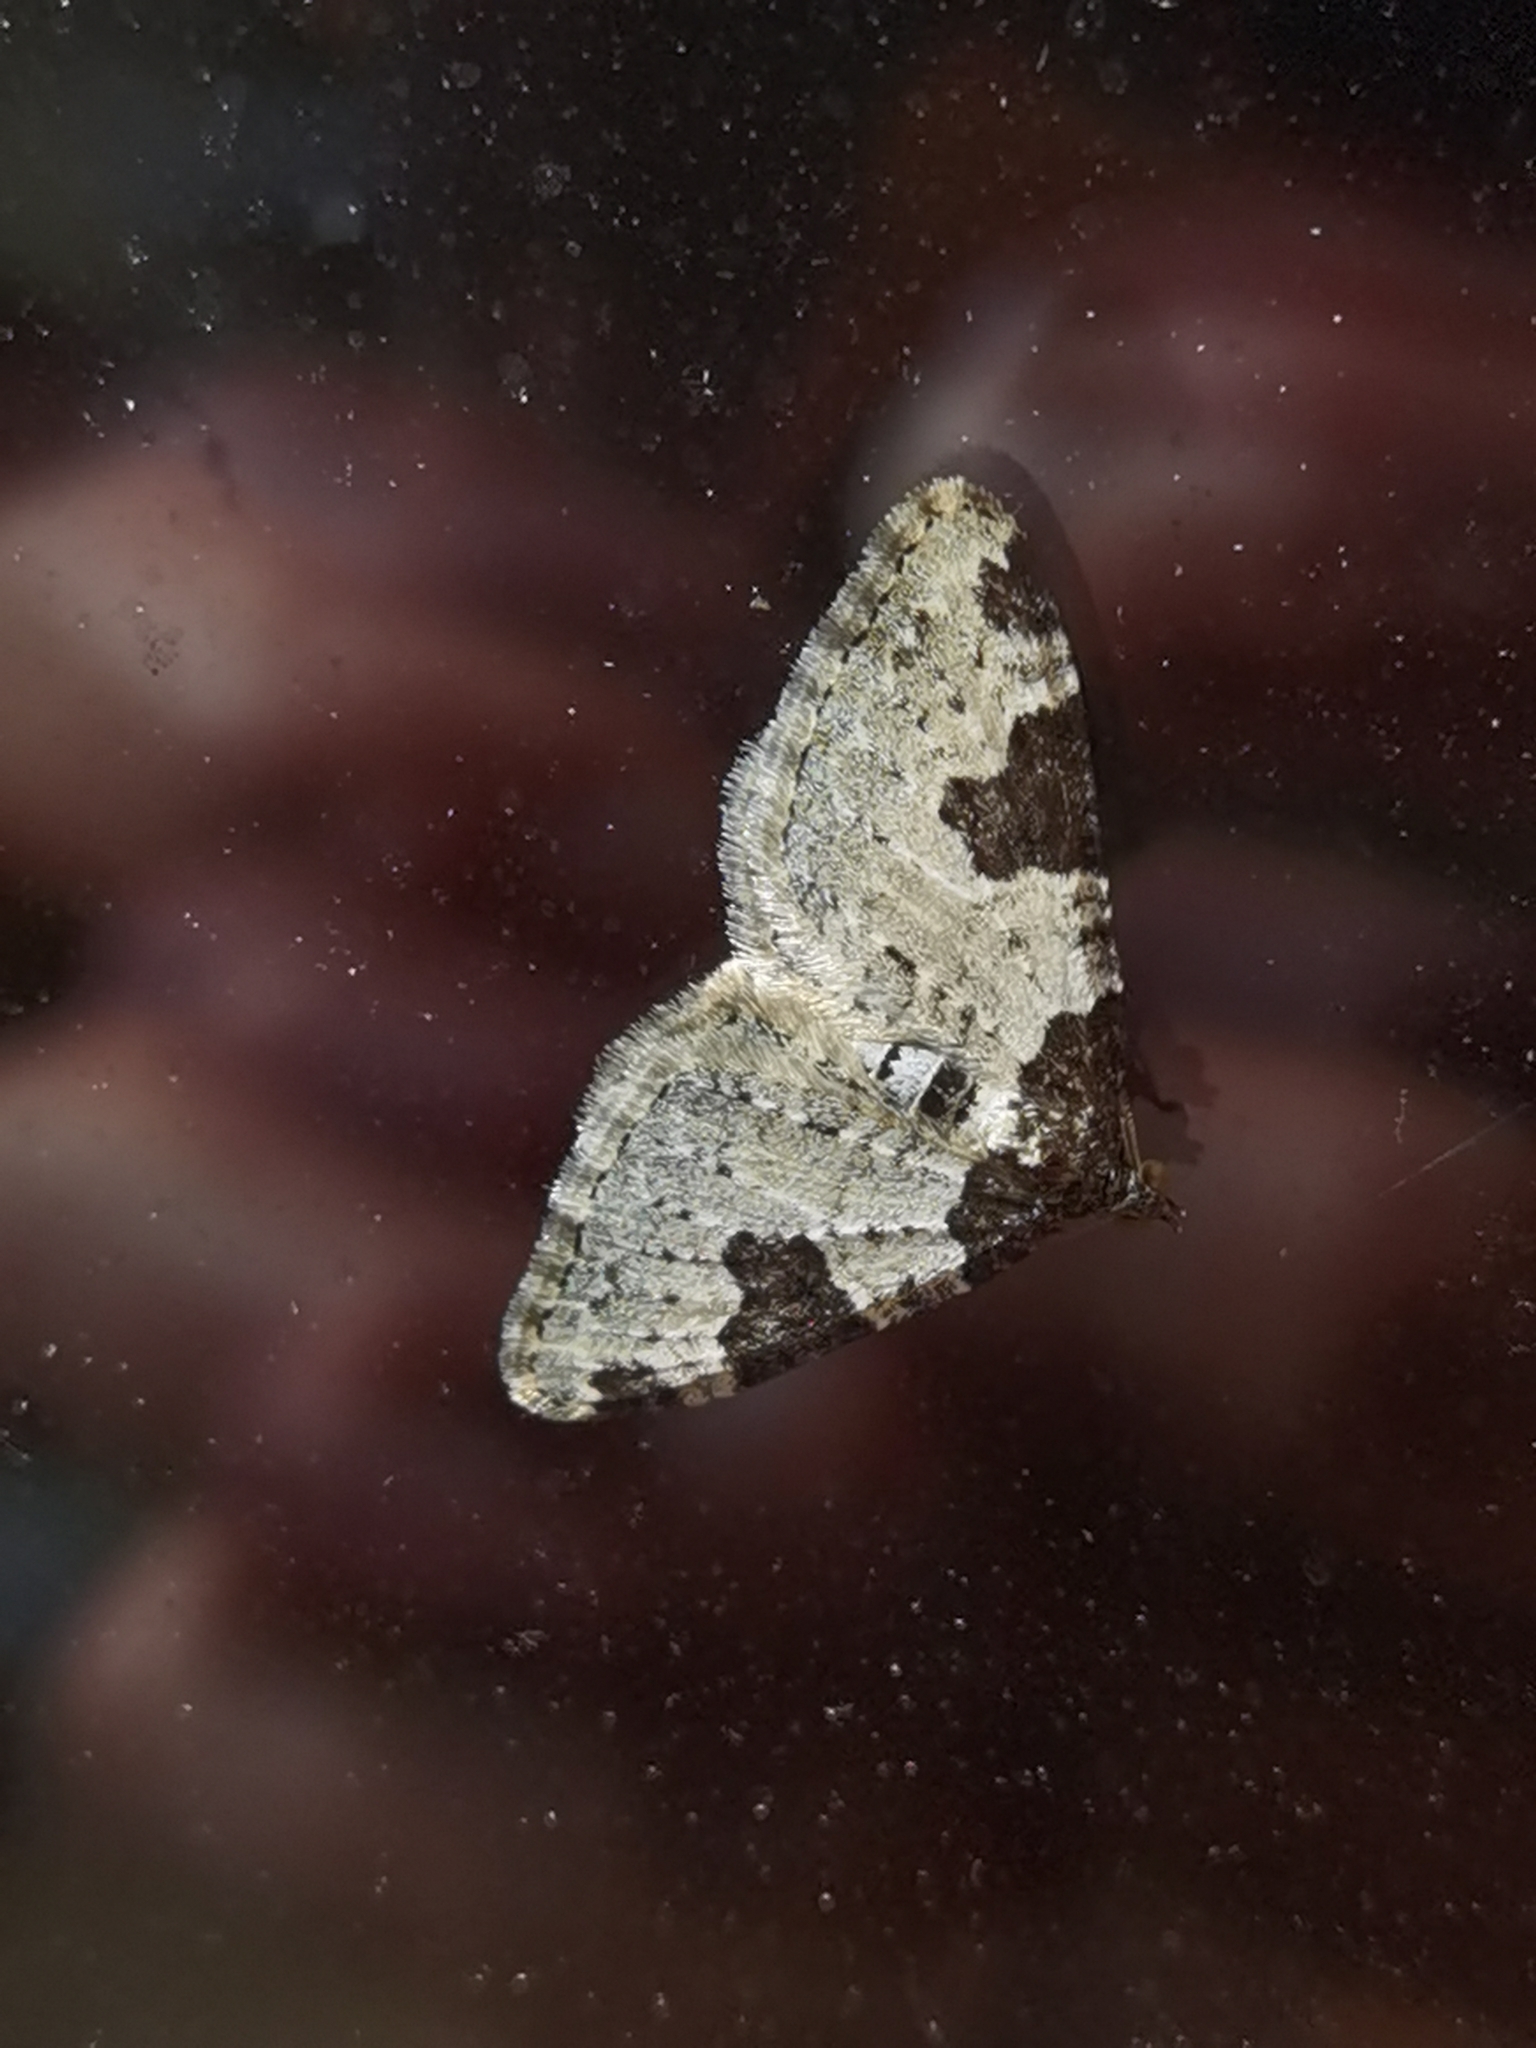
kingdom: Animalia
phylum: Arthropoda
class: Insecta
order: Lepidoptera
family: Geometridae
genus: Xanthorhoe
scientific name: Xanthorhoe fluctuata
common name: Garden carpet
